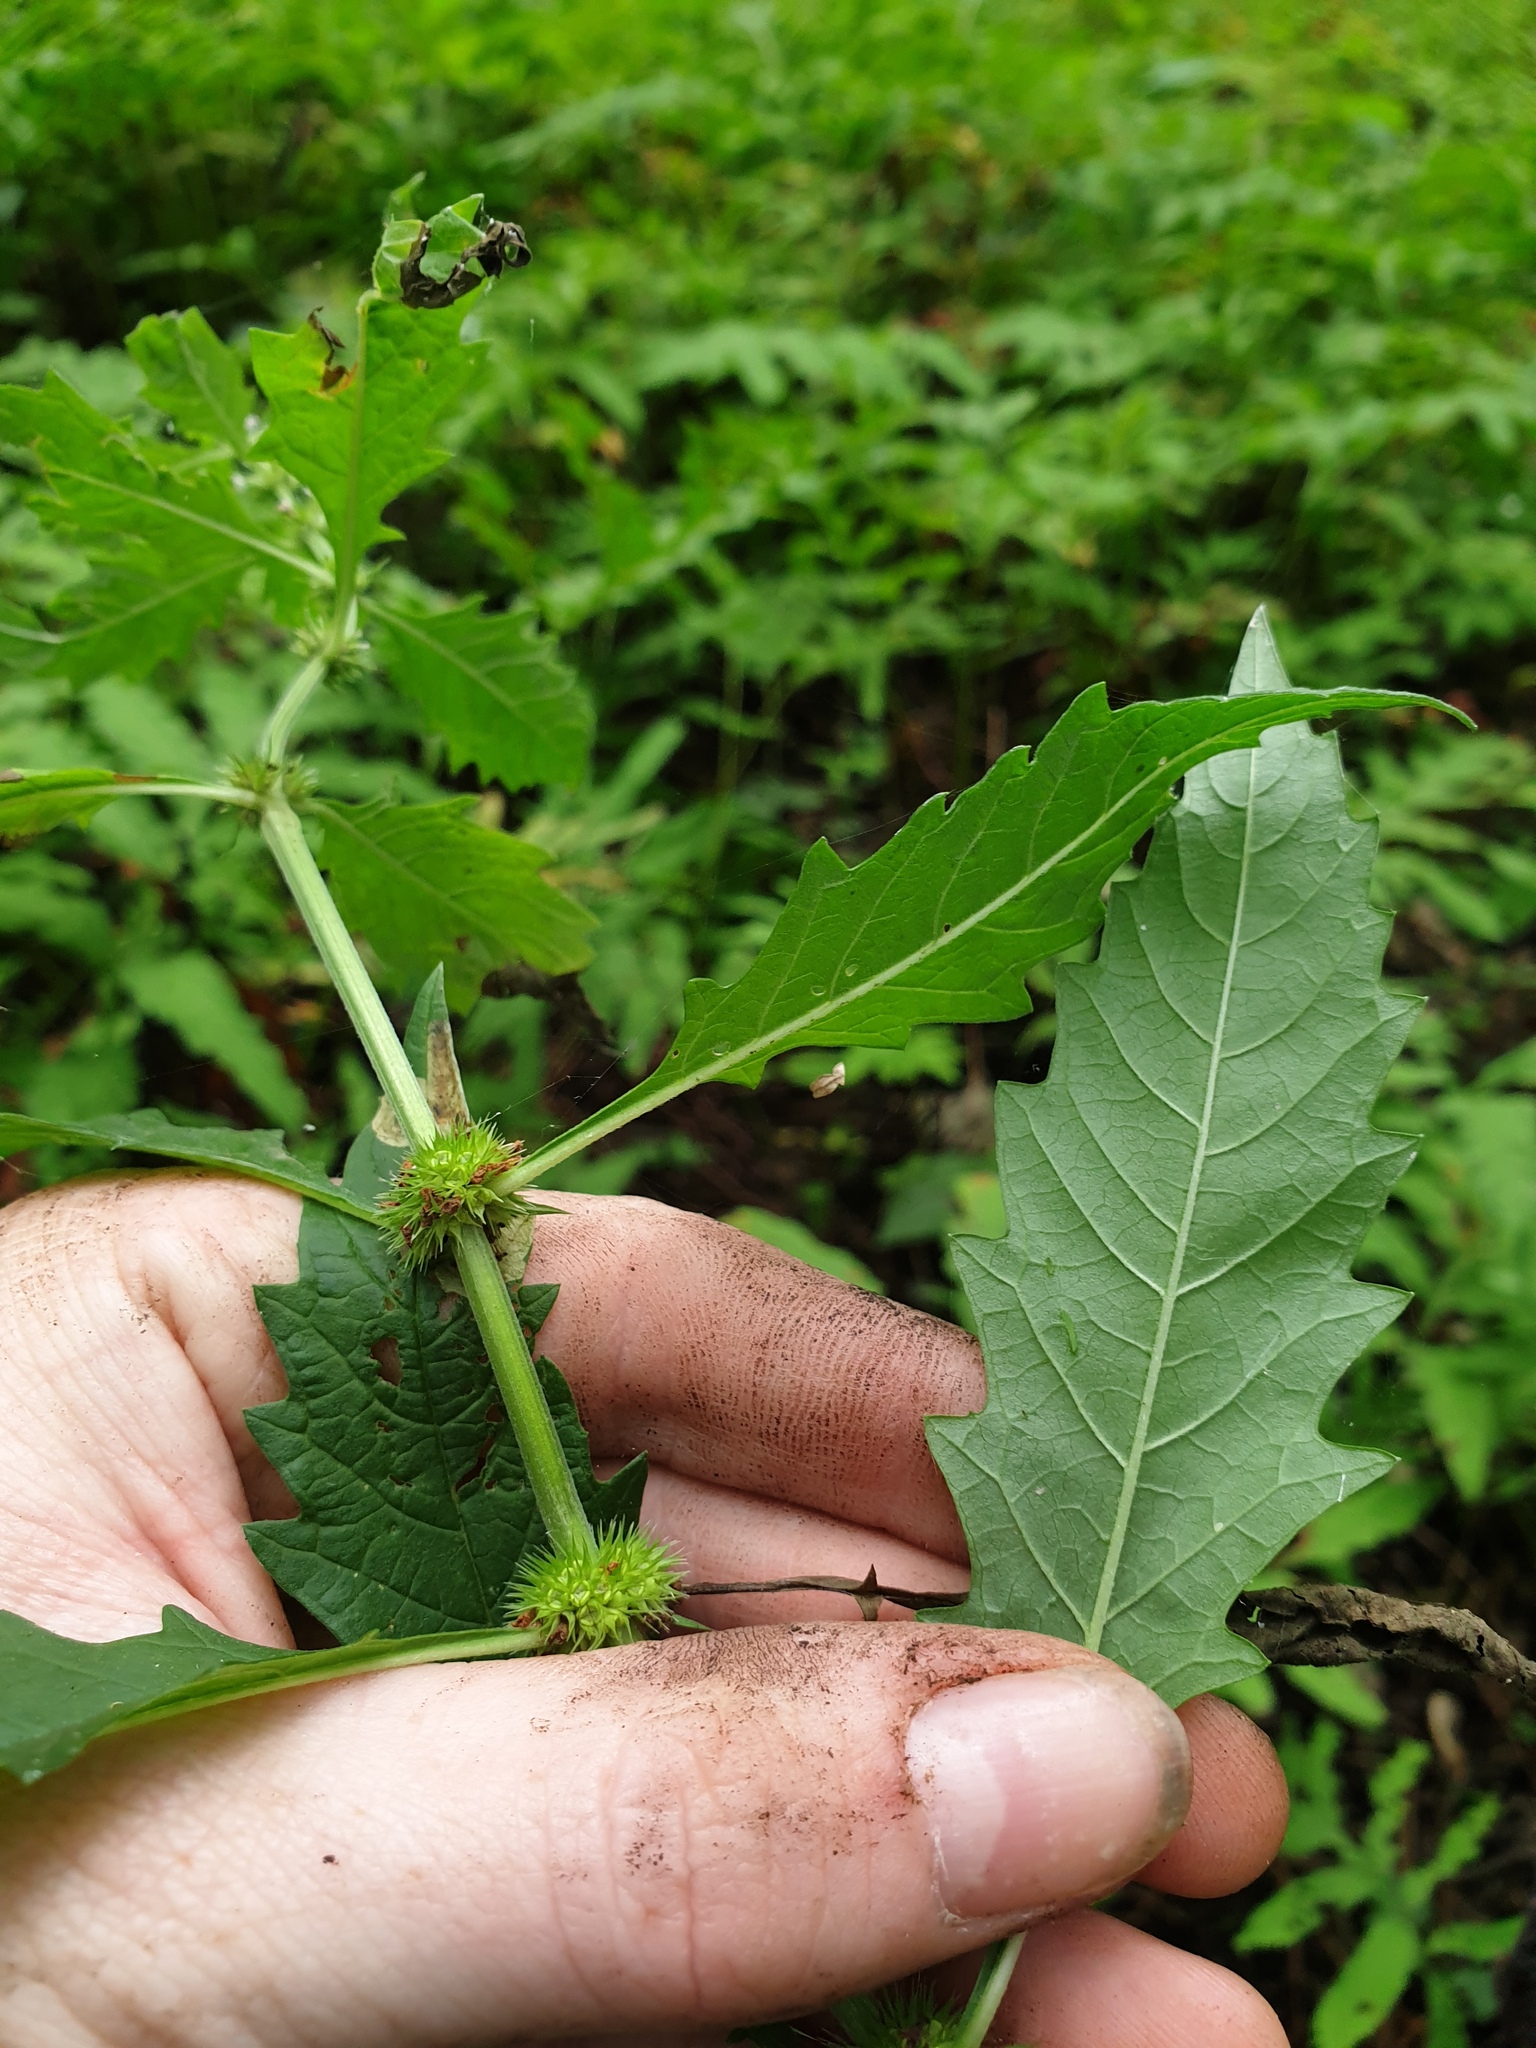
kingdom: Plantae
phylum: Tracheophyta
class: Magnoliopsida
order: Lamiales
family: Lamiaceae
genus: Lycopus
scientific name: Lycopus europaeus
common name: European bugleweed
